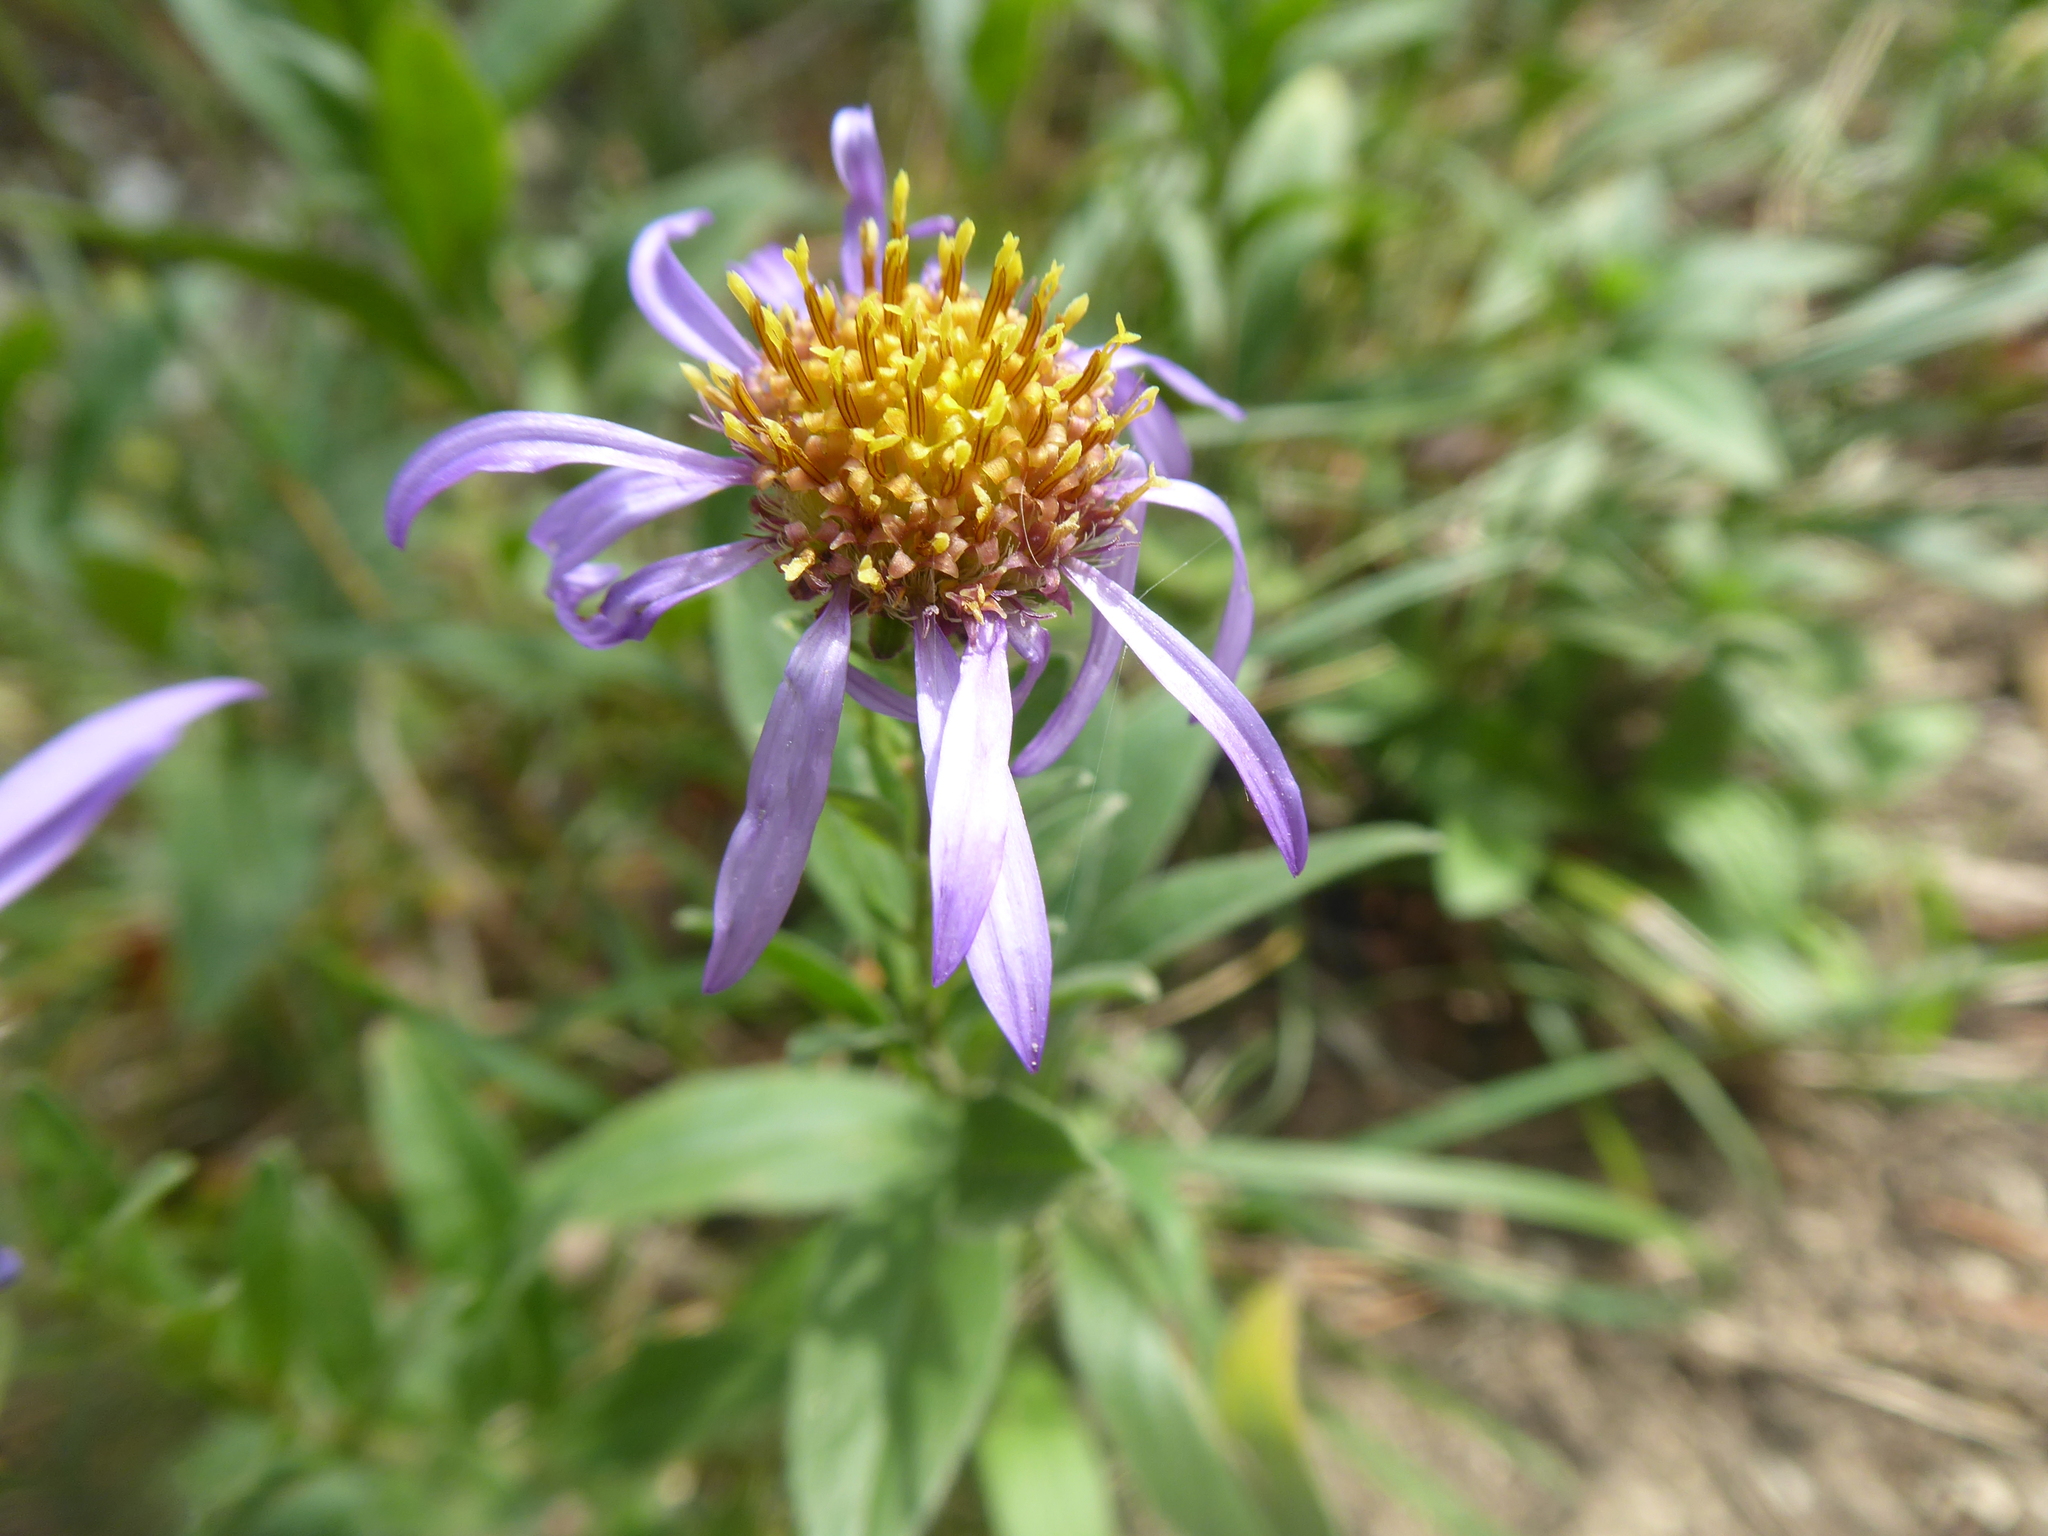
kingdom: Plantae
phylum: Tracheophyta
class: Magnoliopsida
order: Asterales
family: Asteraceae
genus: Aster
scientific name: Aster amellus
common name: European michaelmas daisy
